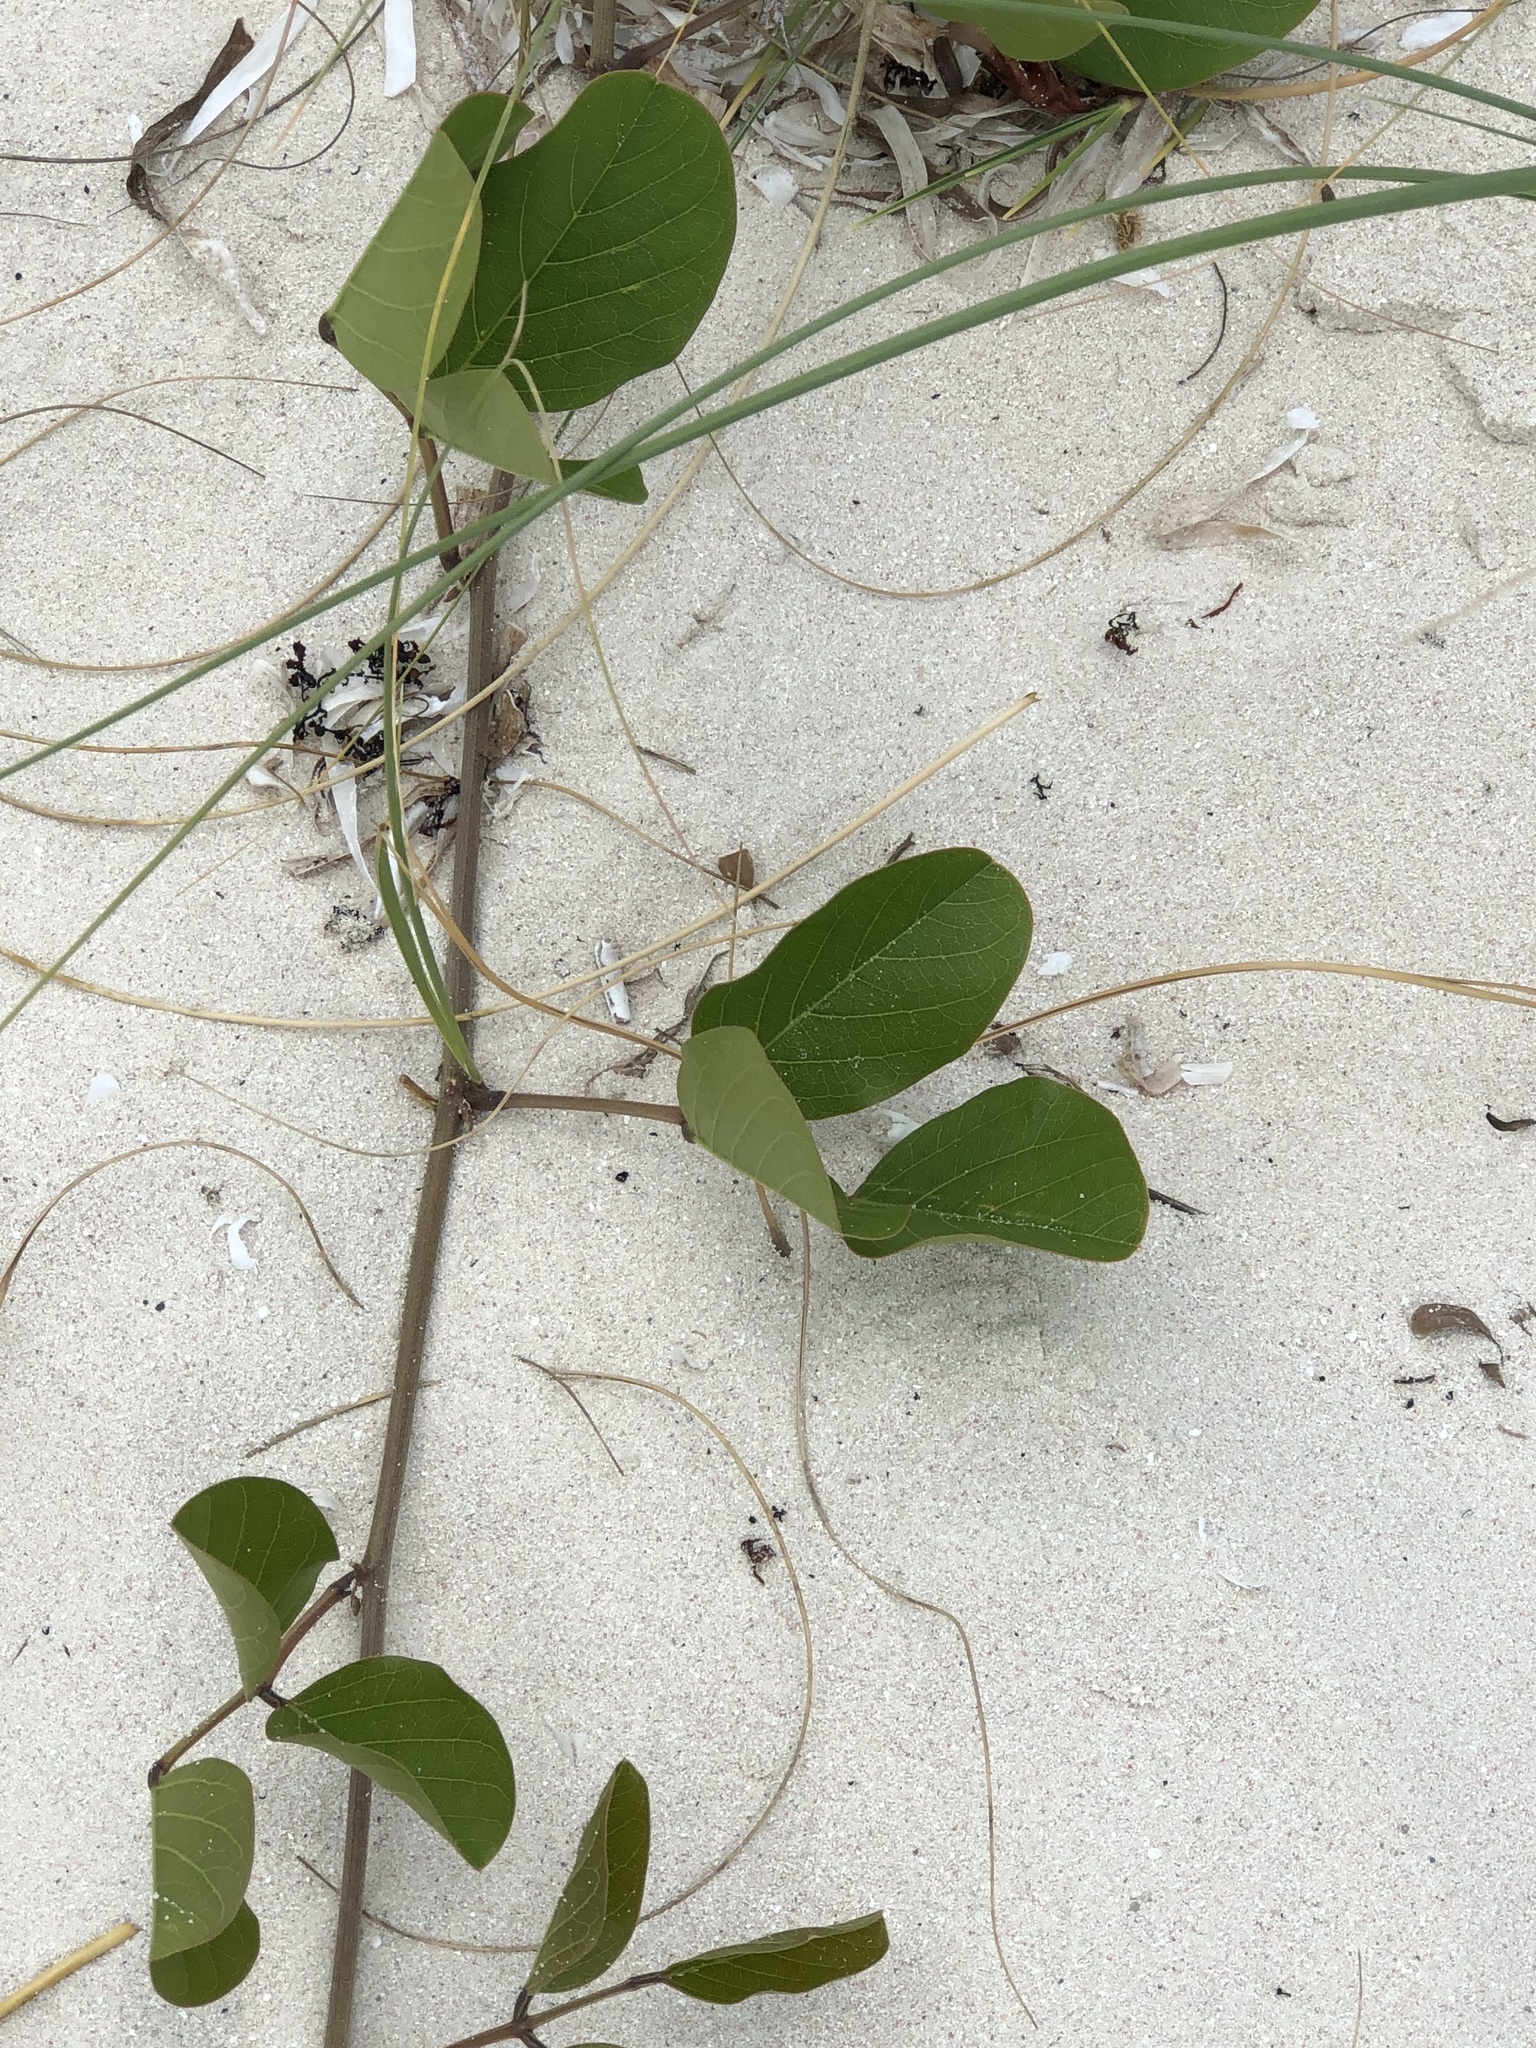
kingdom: Plantae
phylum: Tracheophyta
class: Magnoliopsida
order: Fabales
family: Fabaceae
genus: Canavalia
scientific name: Canavalia rosea
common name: Beach-bean
